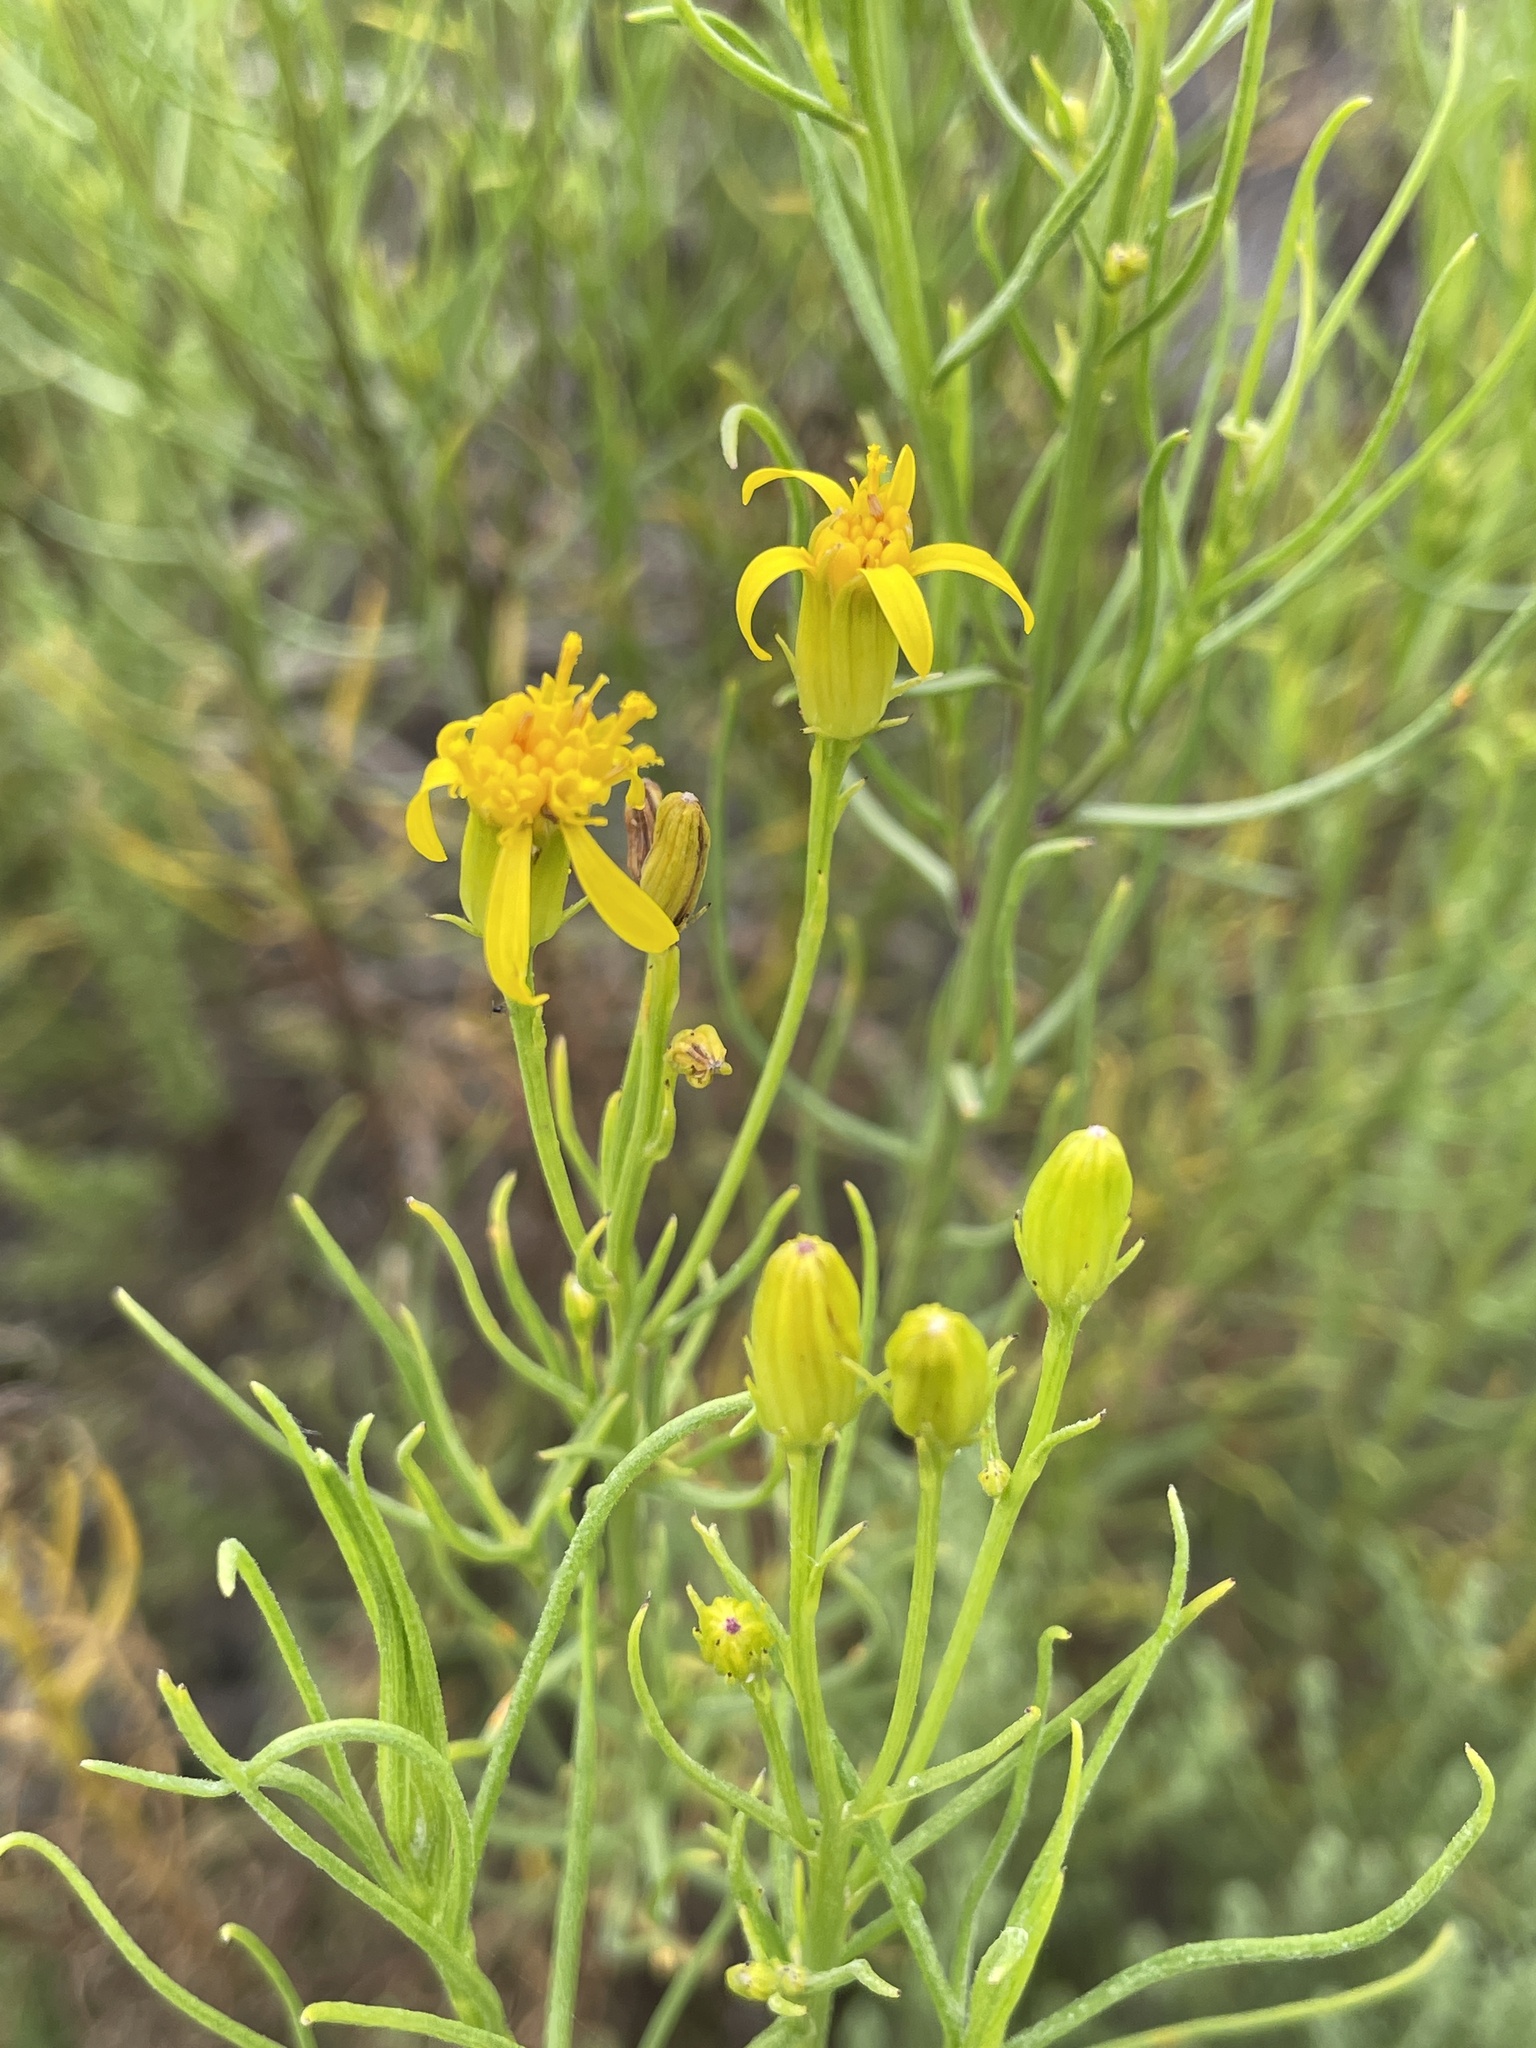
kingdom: Plantae
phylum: Tracheophyta
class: Magnoliopsida
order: Asterales
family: Asteraceae
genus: Senecio
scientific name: Senecio blochmaniae
